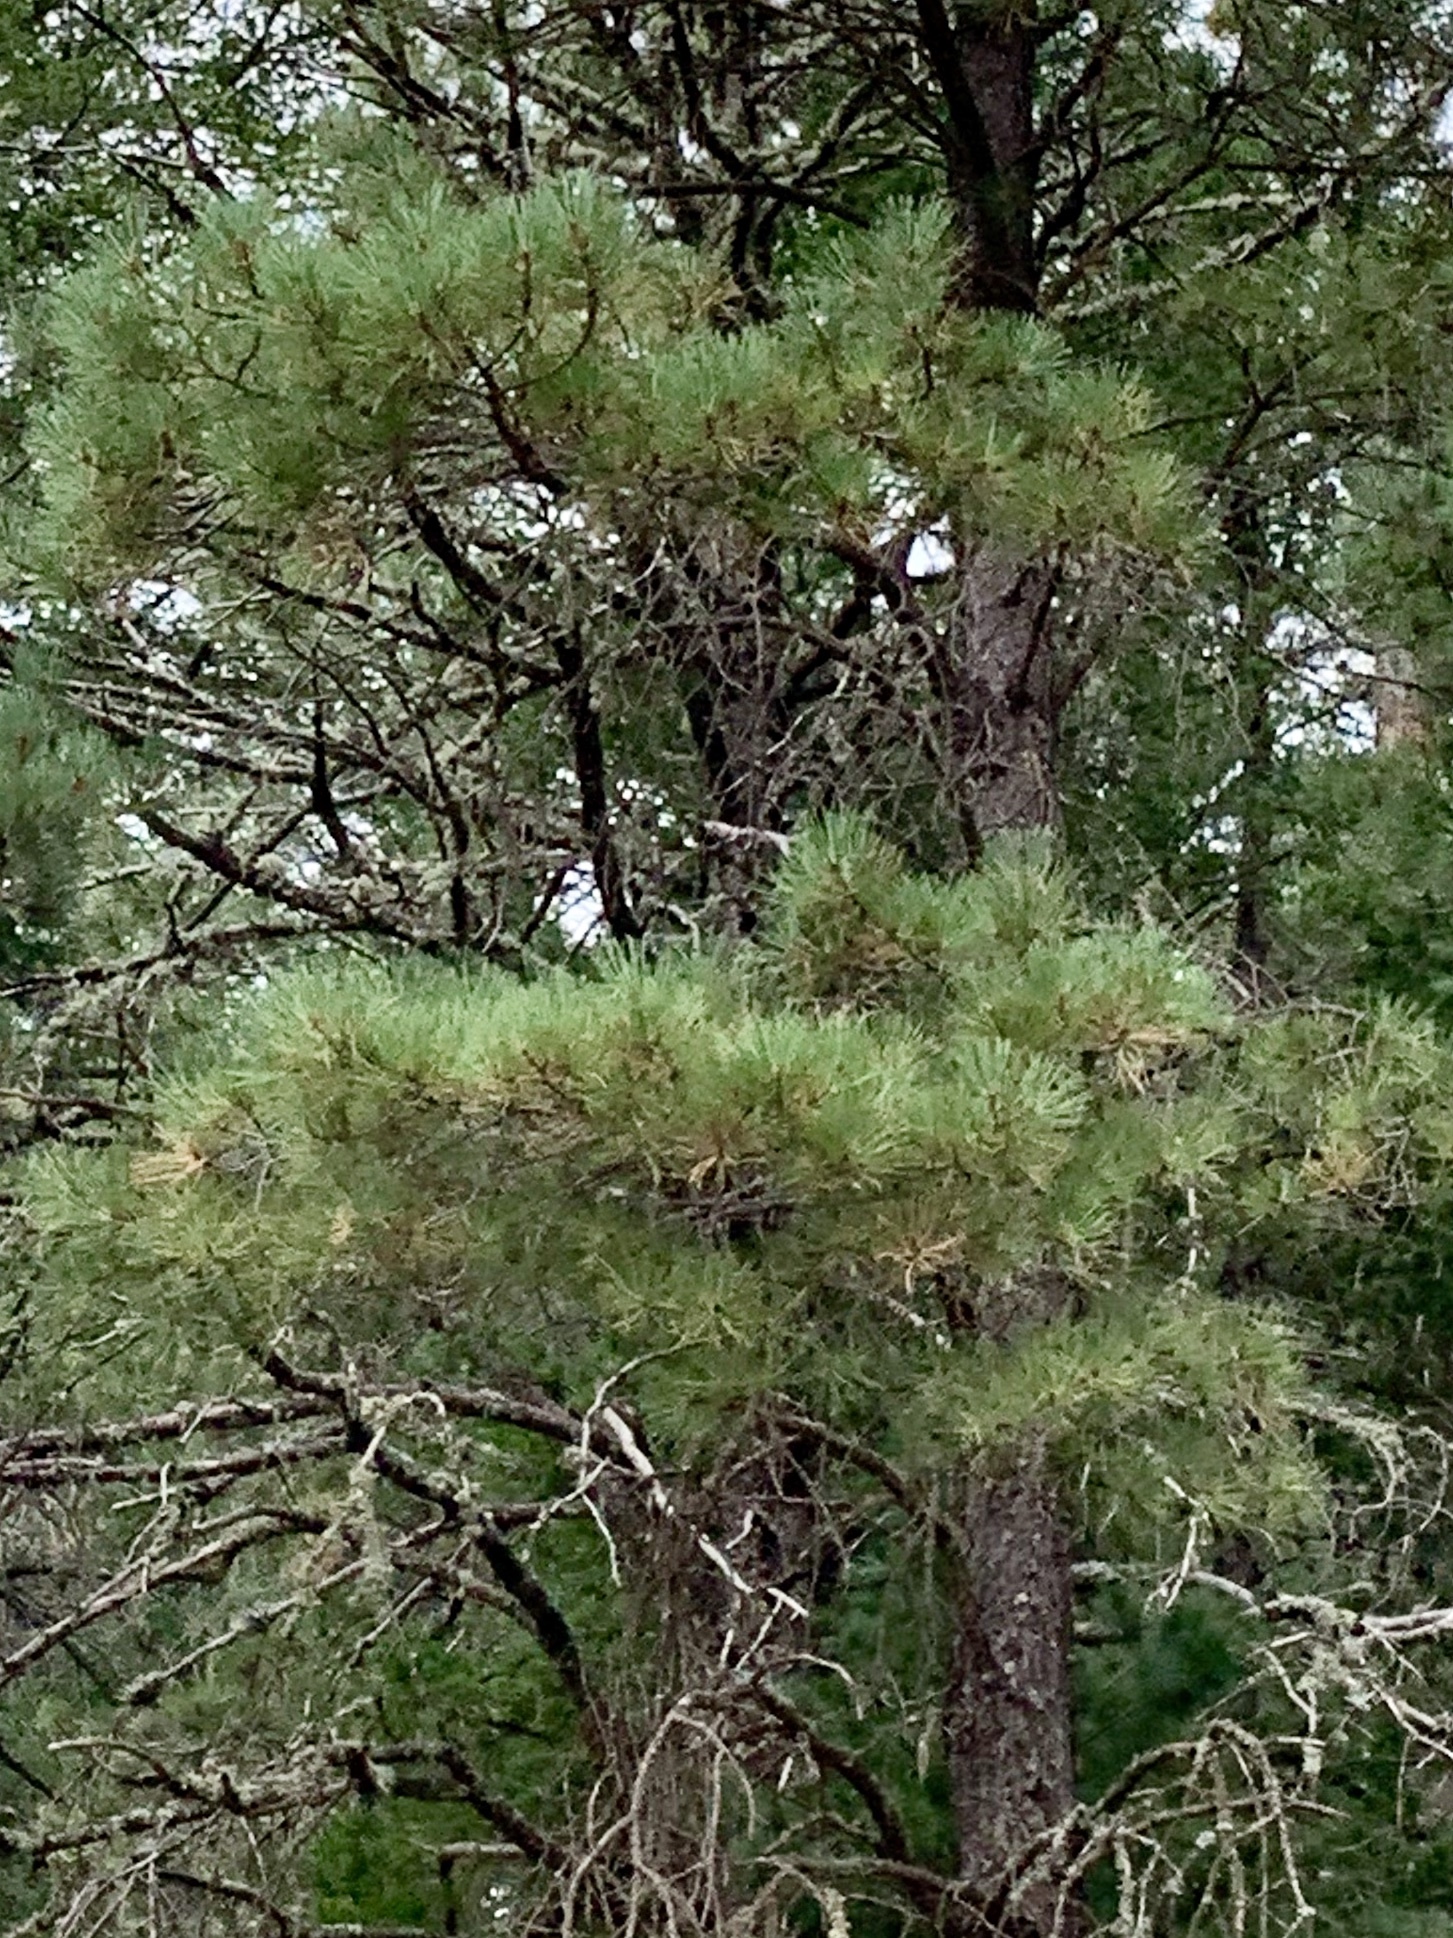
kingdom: Plantae
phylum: Tracheophyta
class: Pinopsida
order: Pinales
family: Pinaceae
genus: Pinus
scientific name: Pinus ponderosa
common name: Western yellow-pine
